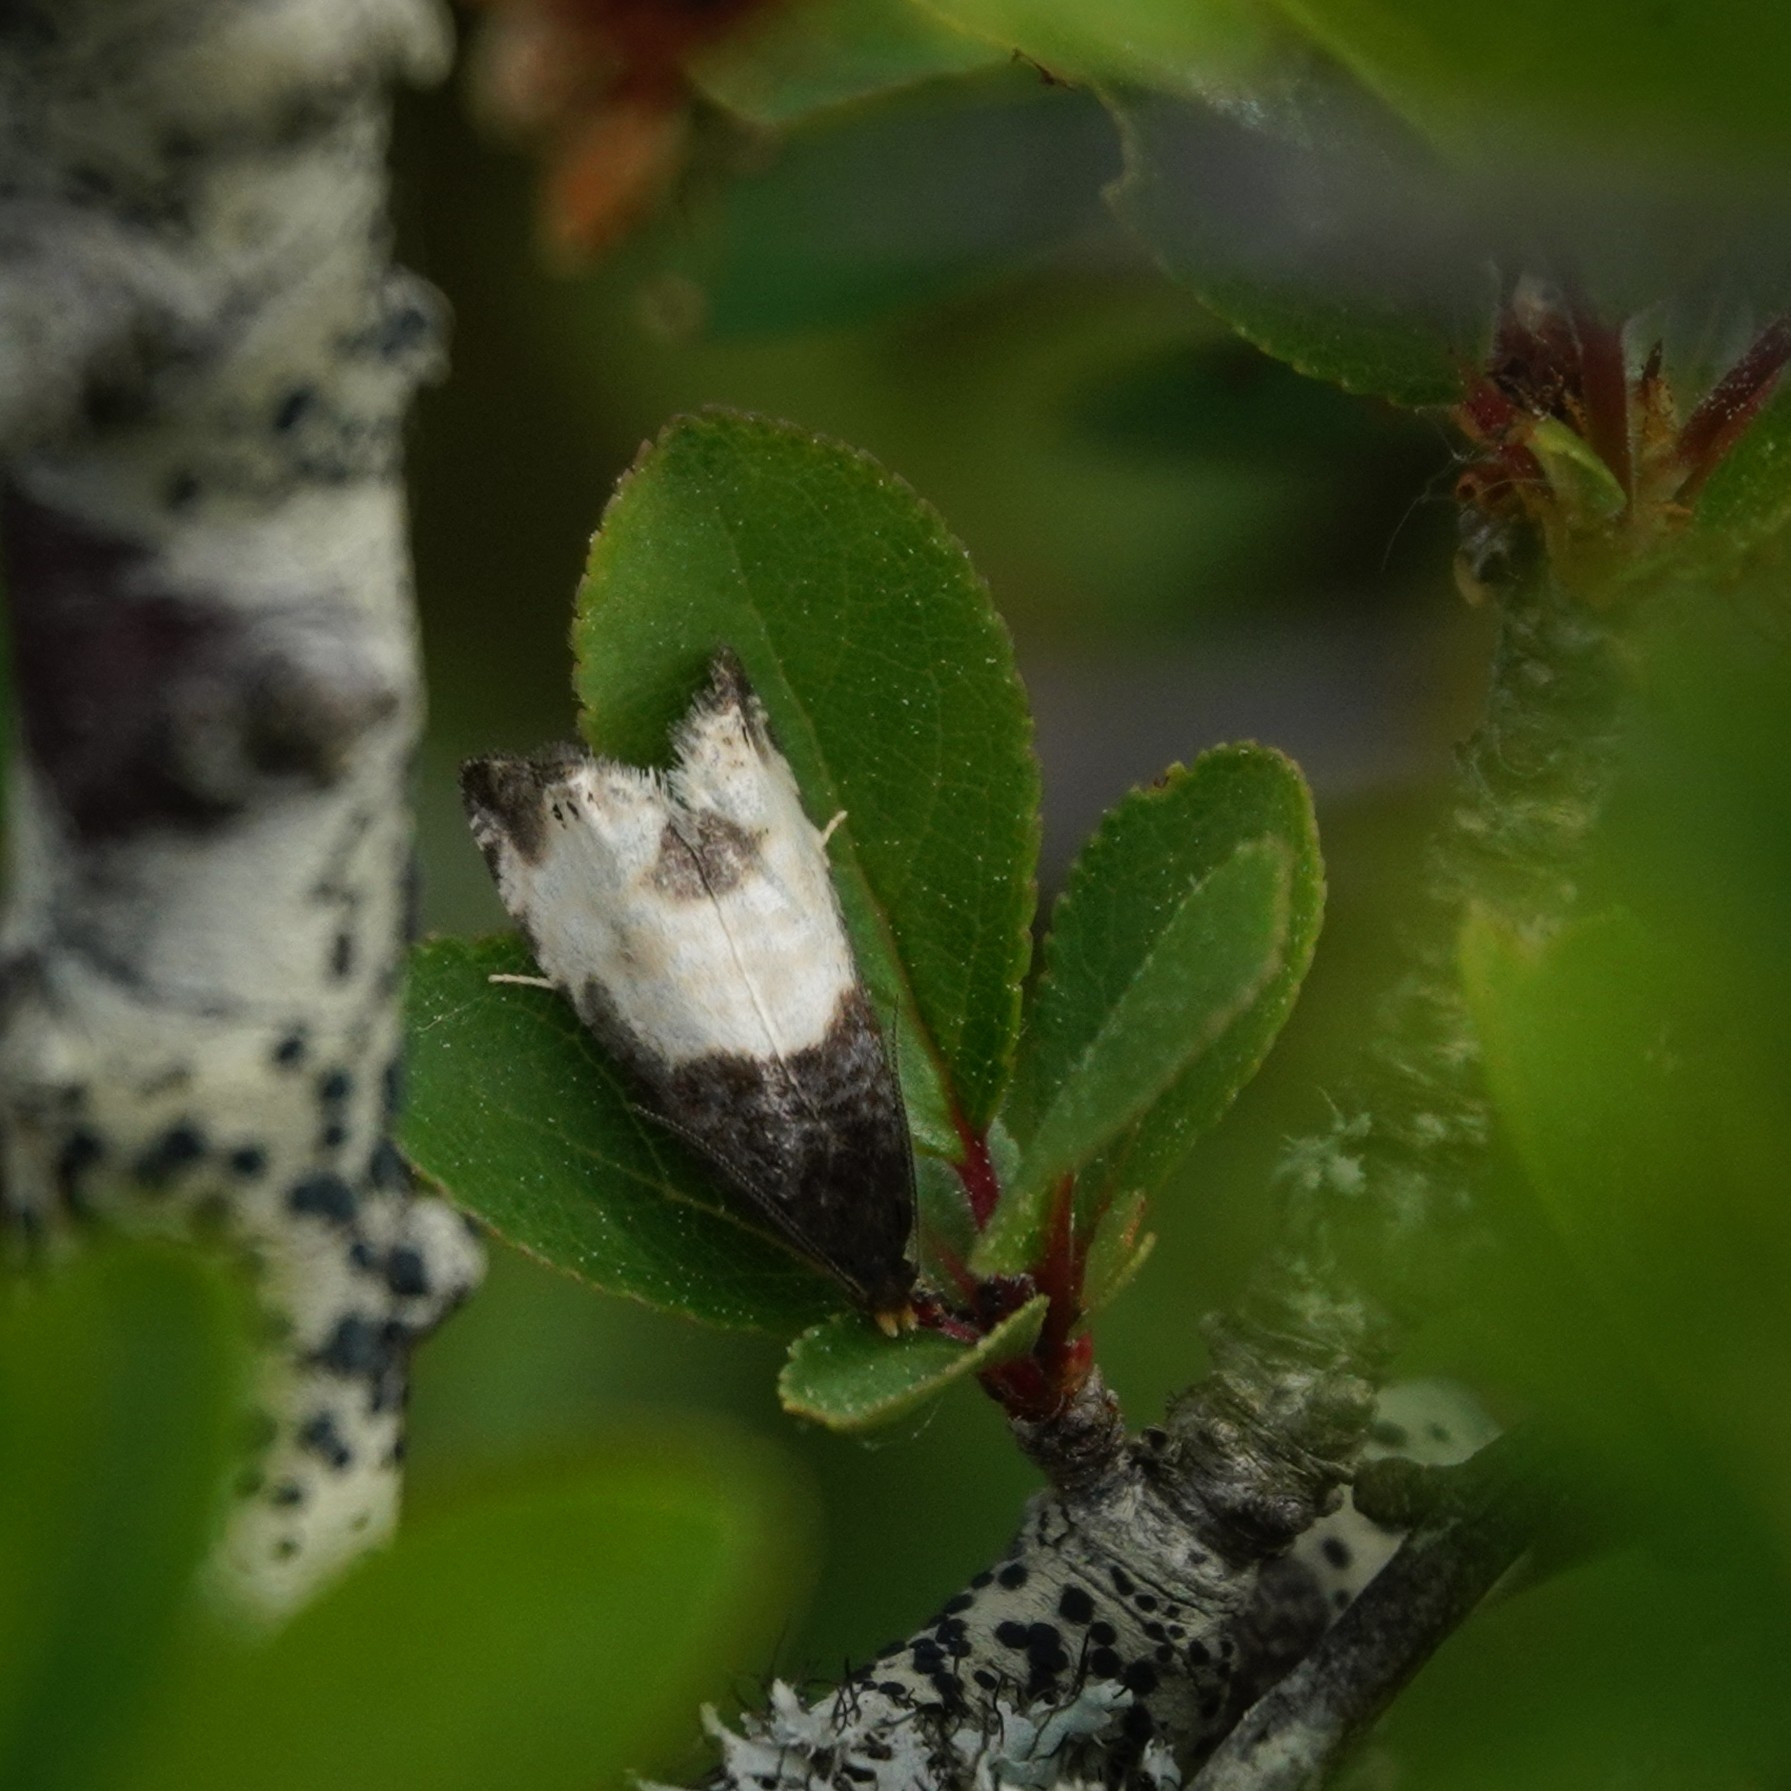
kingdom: Animalia
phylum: Arthropoda
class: Insecta
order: Lepidoptera
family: Tortricidae
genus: Notocelia
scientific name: Notocelia cynosbatella
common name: Yellow-faced bell moth
